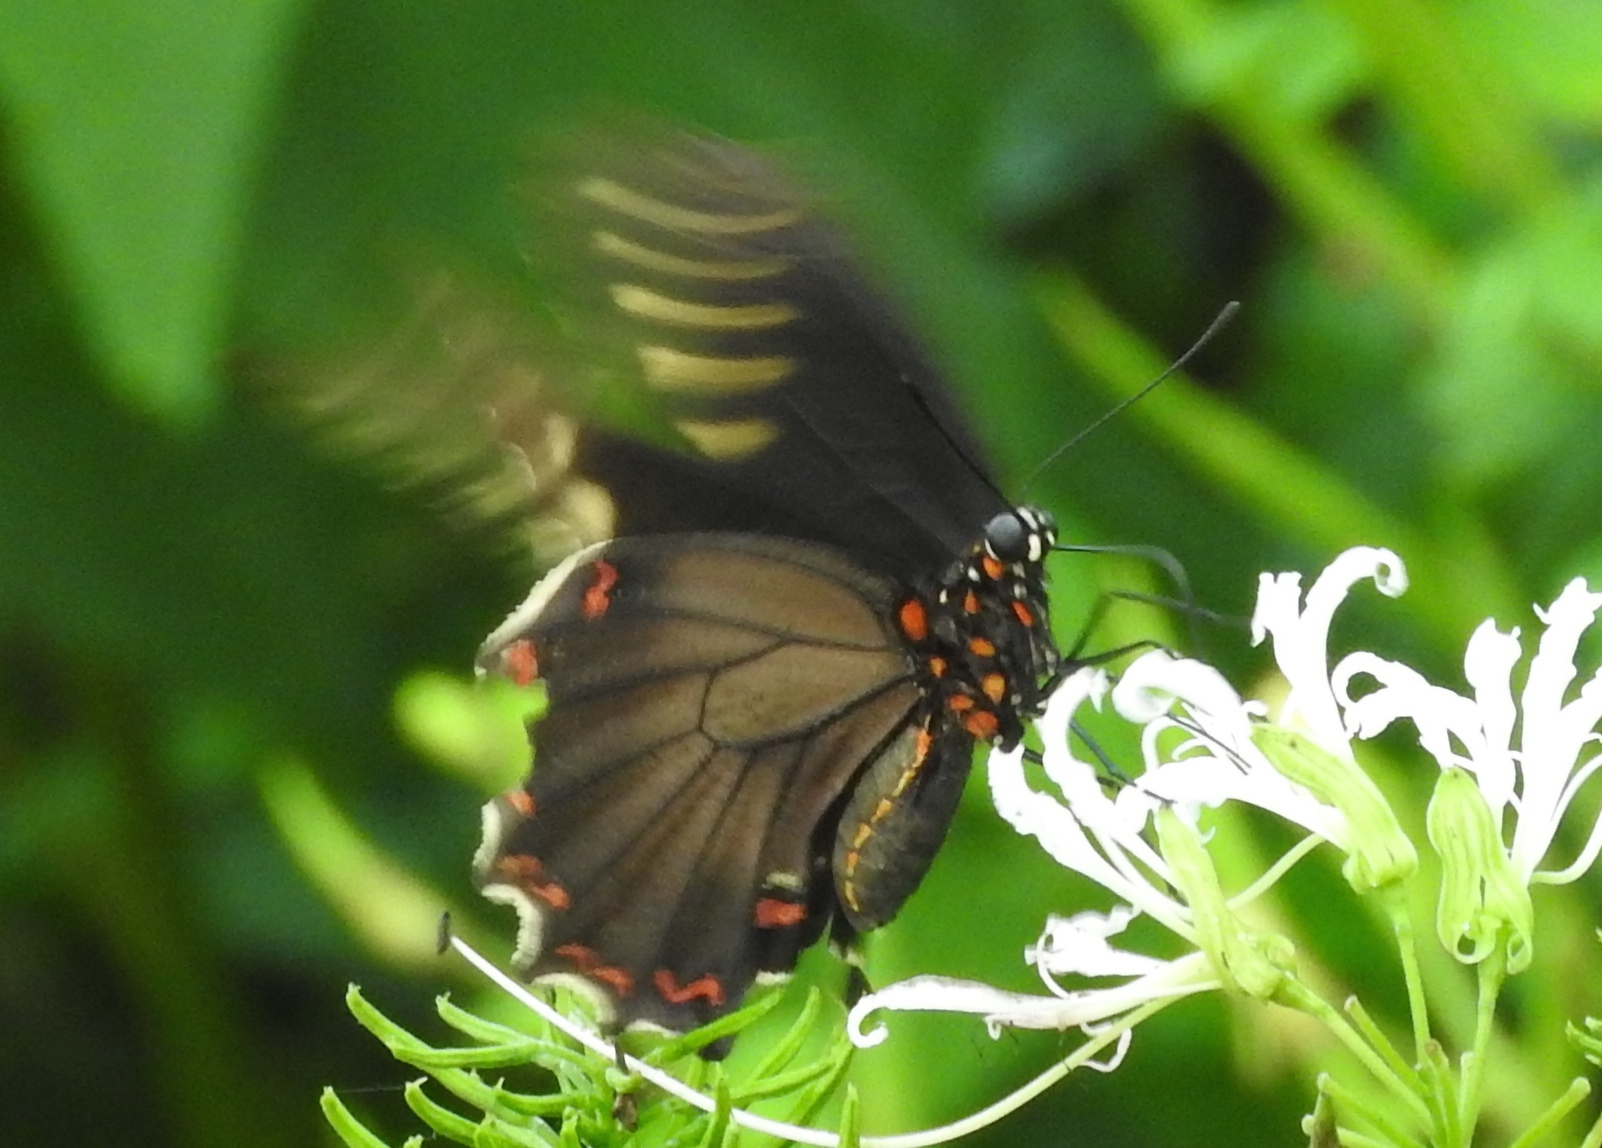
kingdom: Animalia
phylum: Arthropoda
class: Insecta
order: Lepidoptera
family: Papilionidae
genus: Battus
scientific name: Battus polydamas
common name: Polydamas swallowtail
